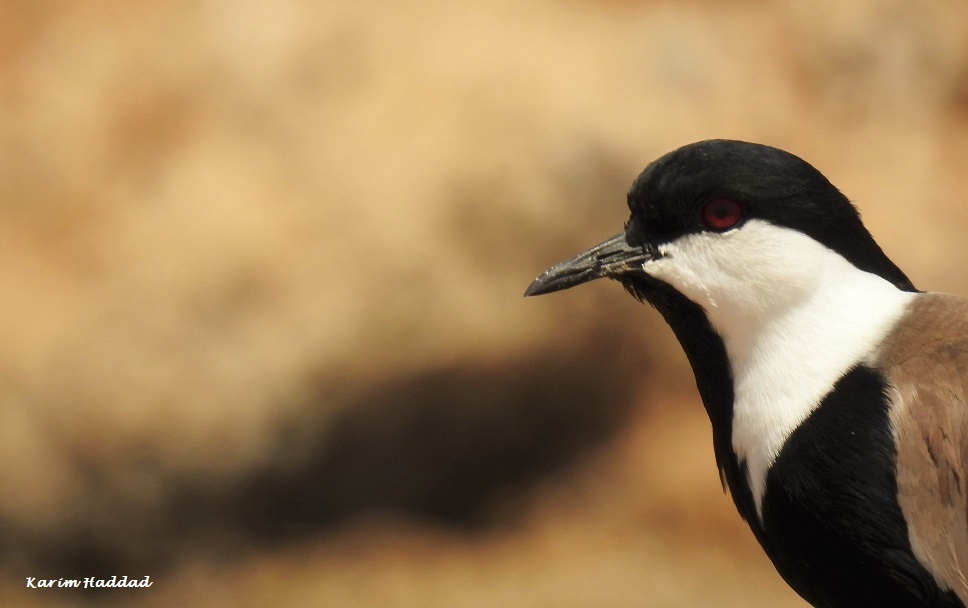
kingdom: Animalia
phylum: Chordata
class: Aves
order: Charadriiformes
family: Charadriidae
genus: Vanellus
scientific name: Vanellus spinosus
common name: Spur-winged lapwing
